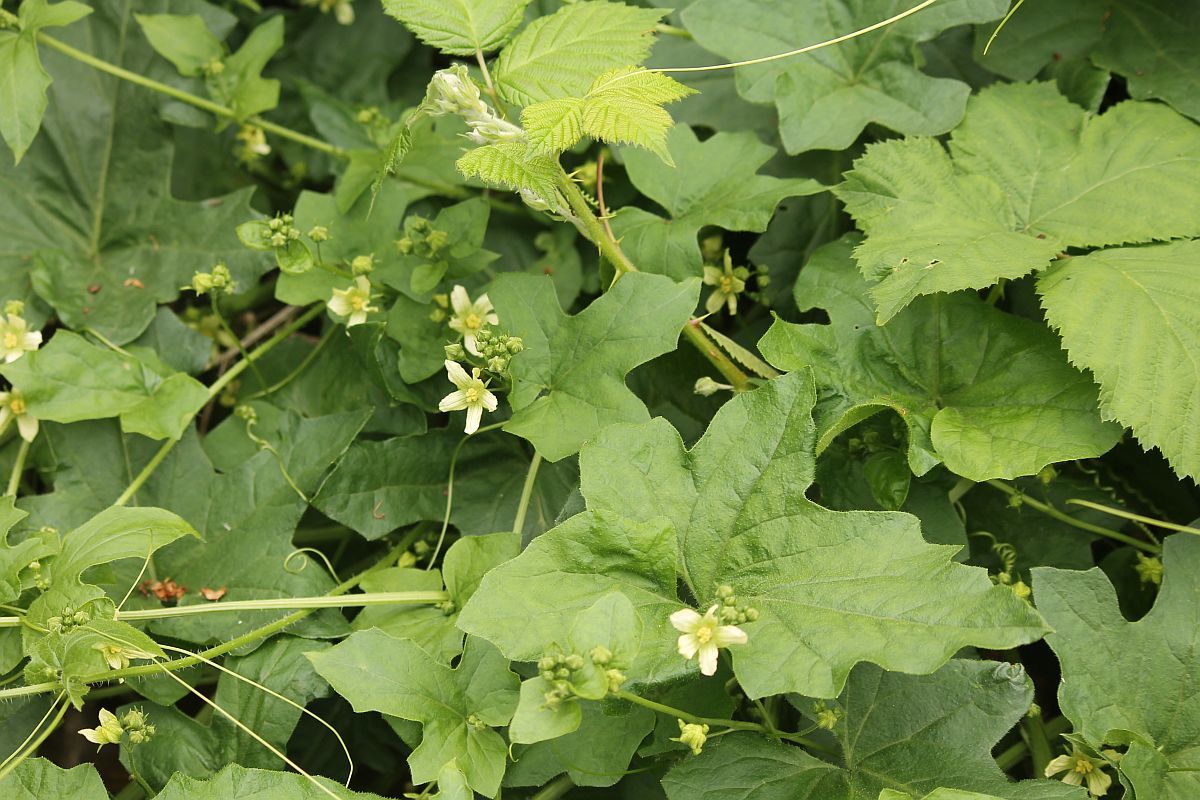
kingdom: Plantae
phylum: Tracheophyta
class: Magnoliopsida
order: Cucurbitales
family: Cucurbitaceae
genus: Bryonia
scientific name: Bryonia cretica
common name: Cretan bryony
